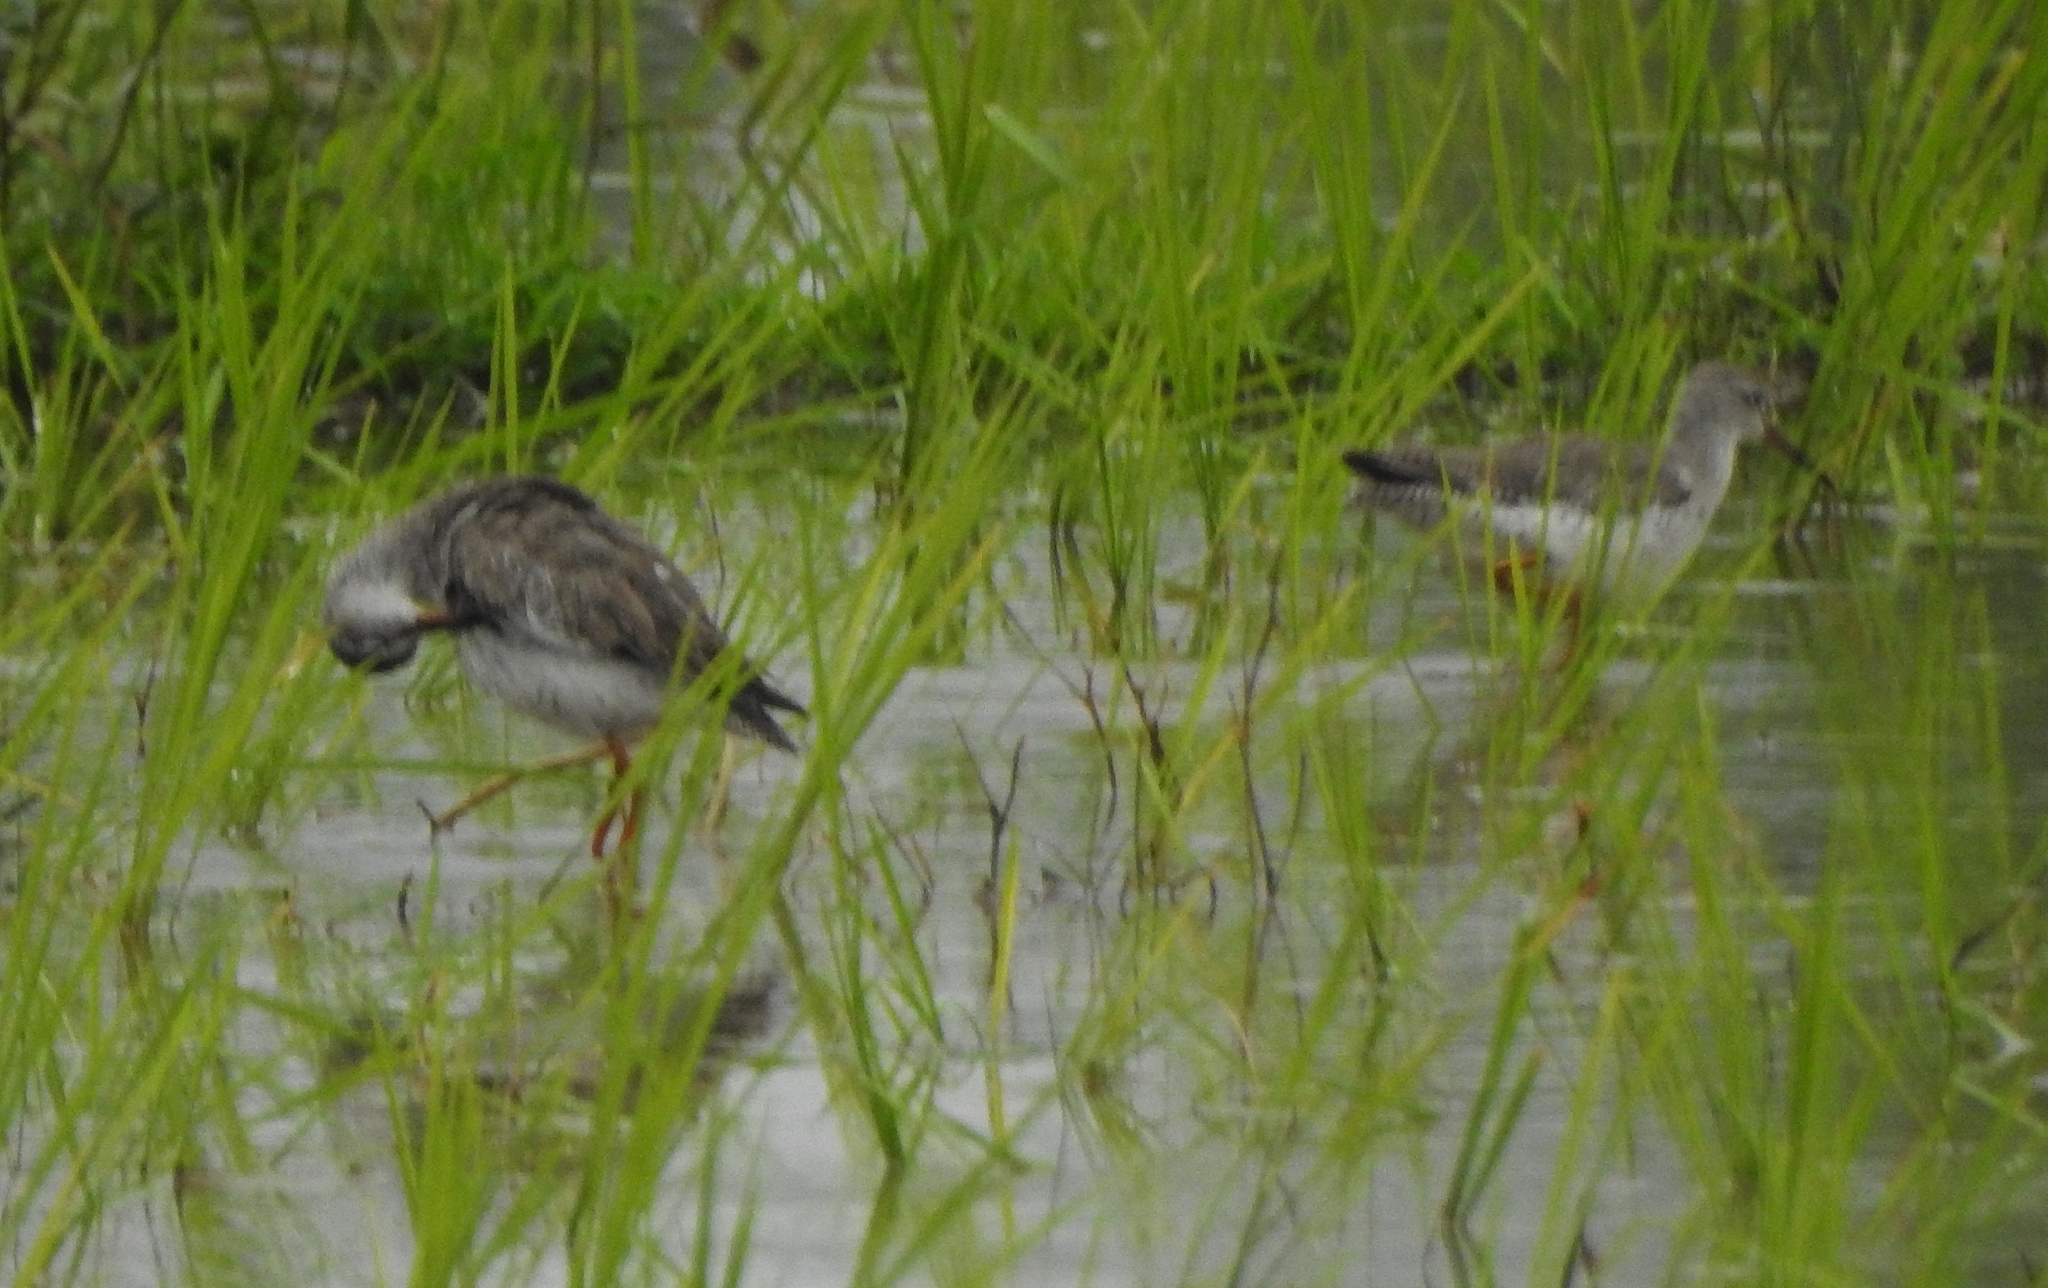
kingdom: Animalia
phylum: Chordata
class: Aves
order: Charadriiformes
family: Scolopacidae
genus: Tringa
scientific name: Tringa totanus
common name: Common redshank
